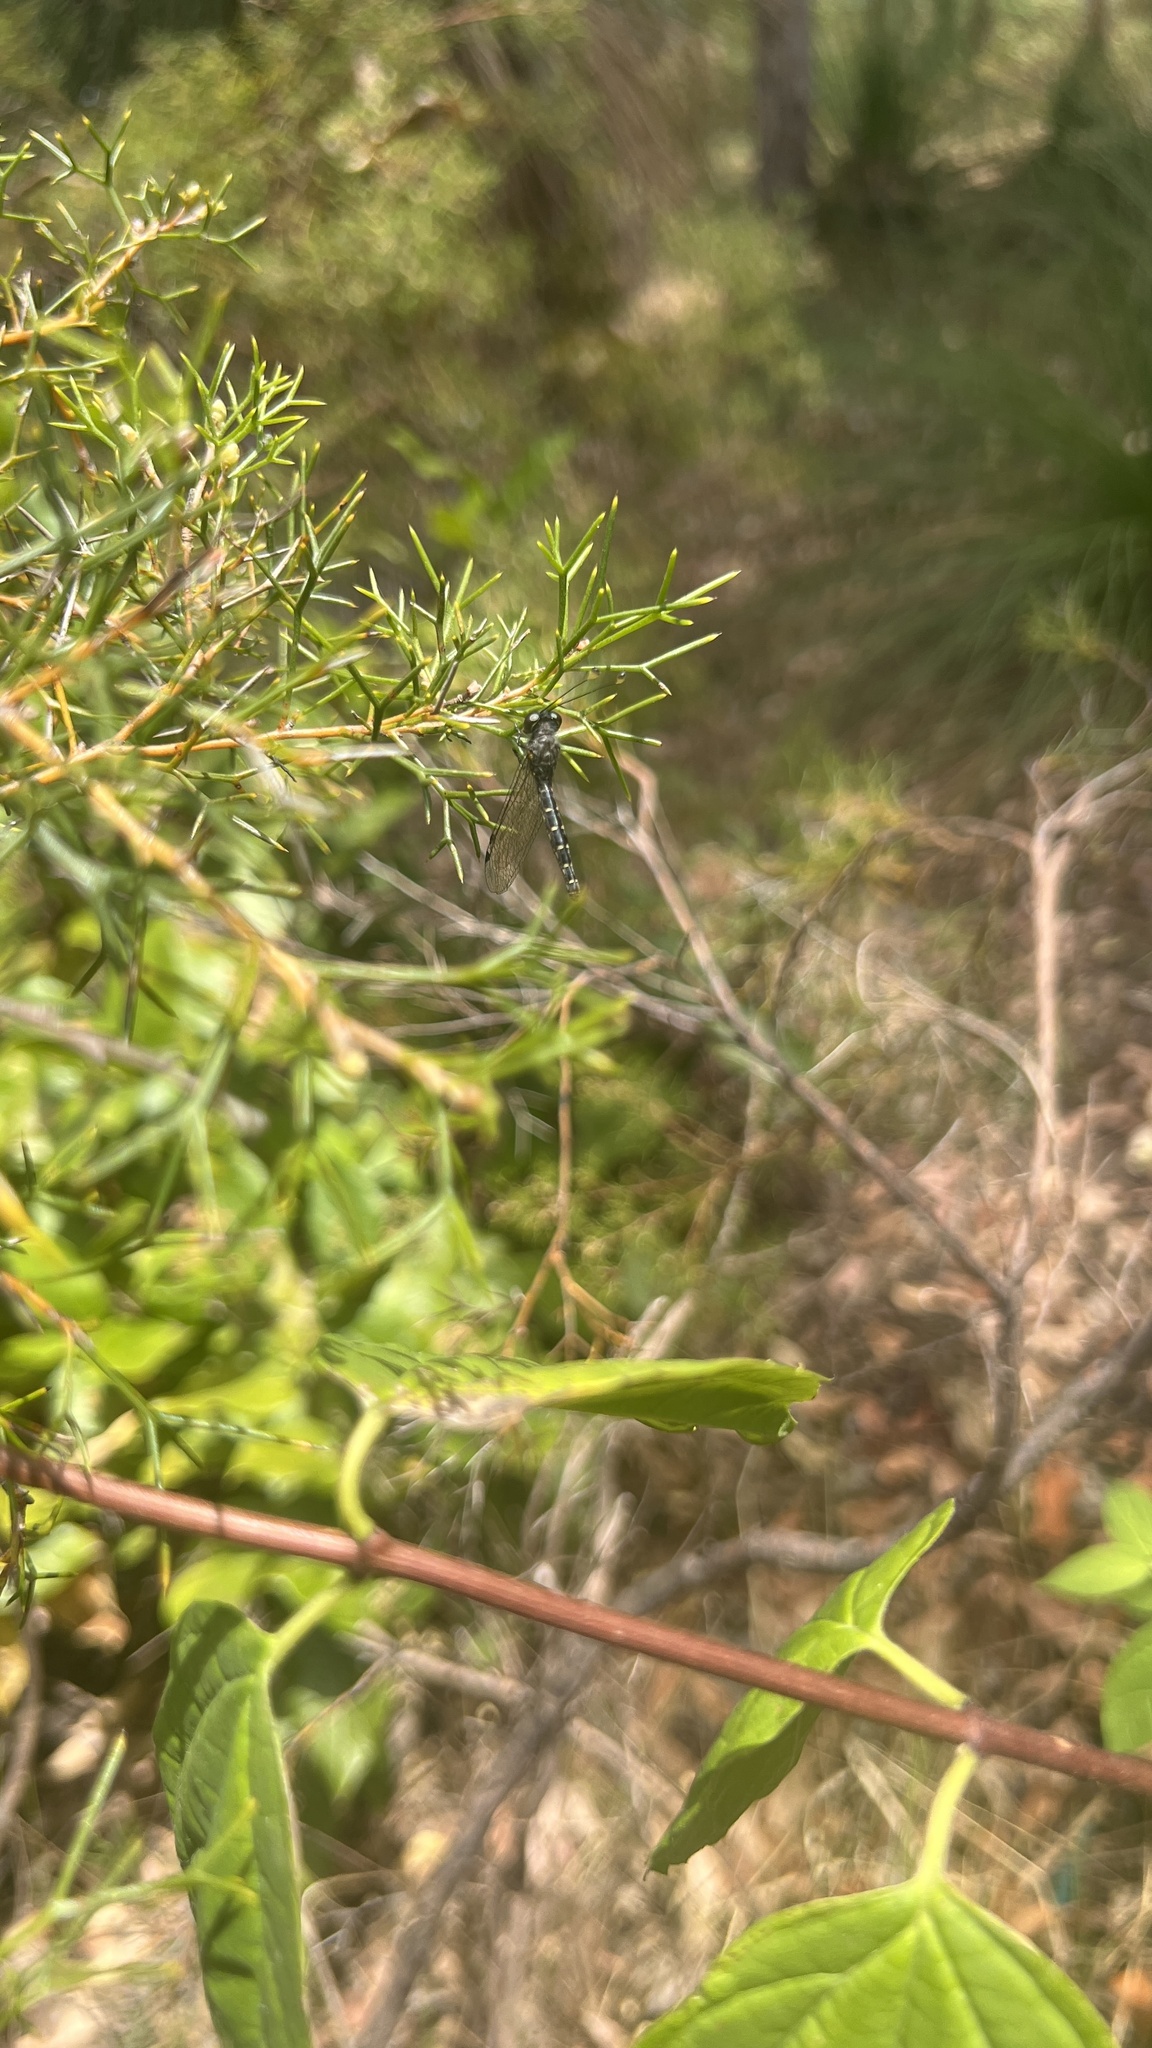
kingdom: Animalia
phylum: Arthropoda
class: Insecta
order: Neuroptera
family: Ascalaphidae
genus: Suhpalacsa
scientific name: Suhpalacsa nigrescens
